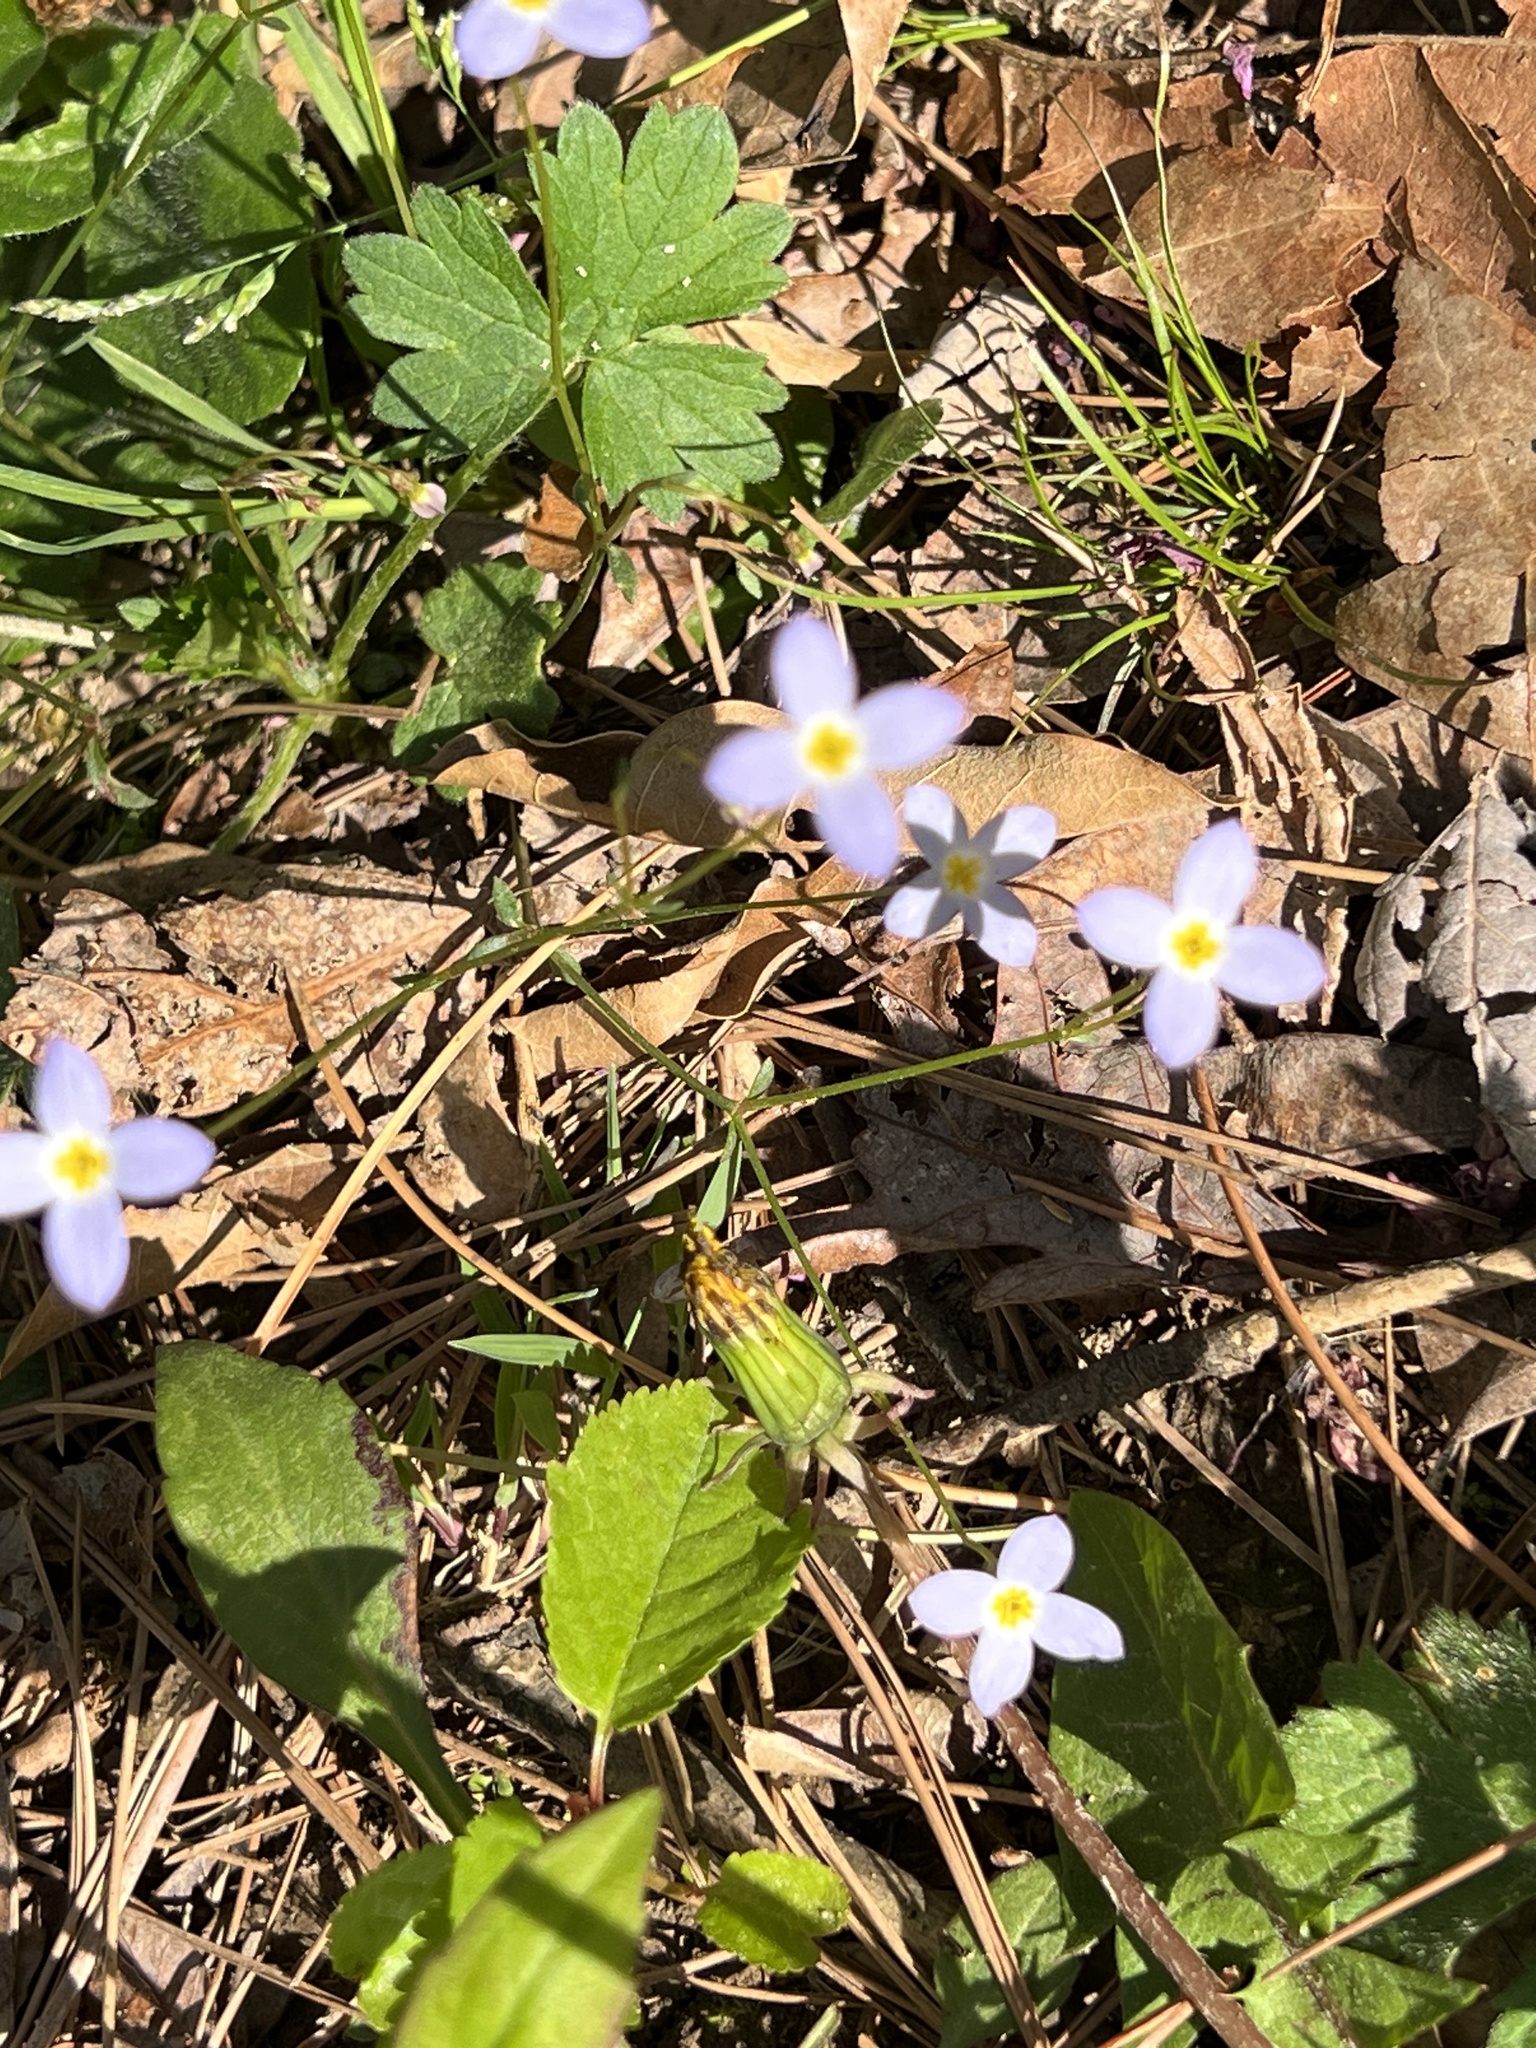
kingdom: Plantae
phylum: Tracheophyta
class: Magnoliopsida
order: Gentianales
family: Rubiaceae
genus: Houstonia
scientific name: Houstonia caerulea
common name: Bluets
